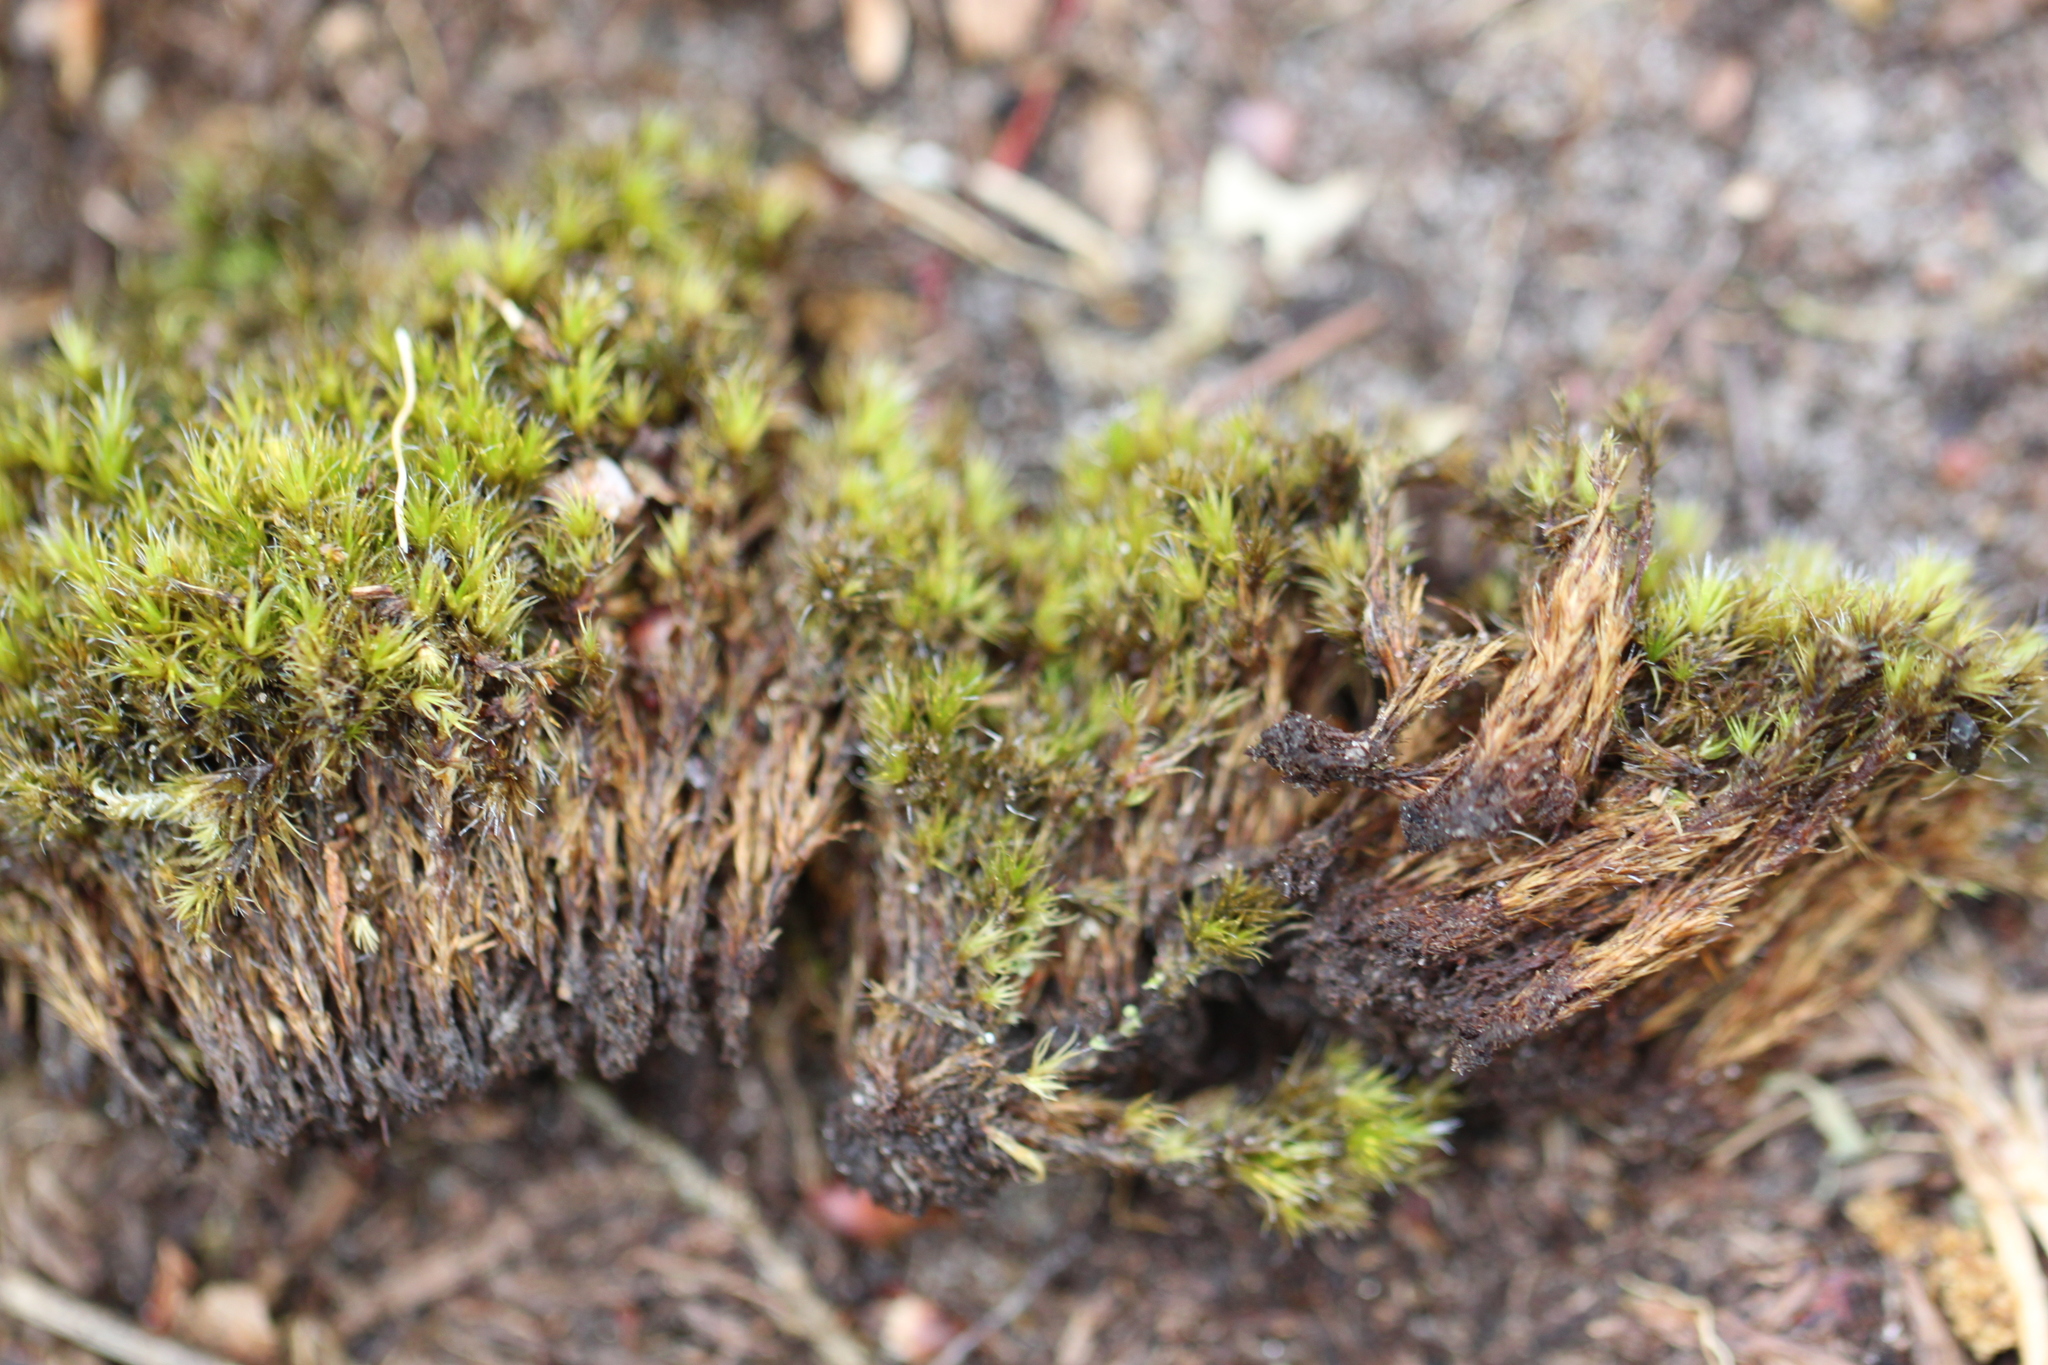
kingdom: Plantae
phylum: Bryophyta
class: Bryopsida
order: Dicranales
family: Leucobryaceae
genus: Campylopus
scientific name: Campylopus introflexus
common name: Heath star moss
